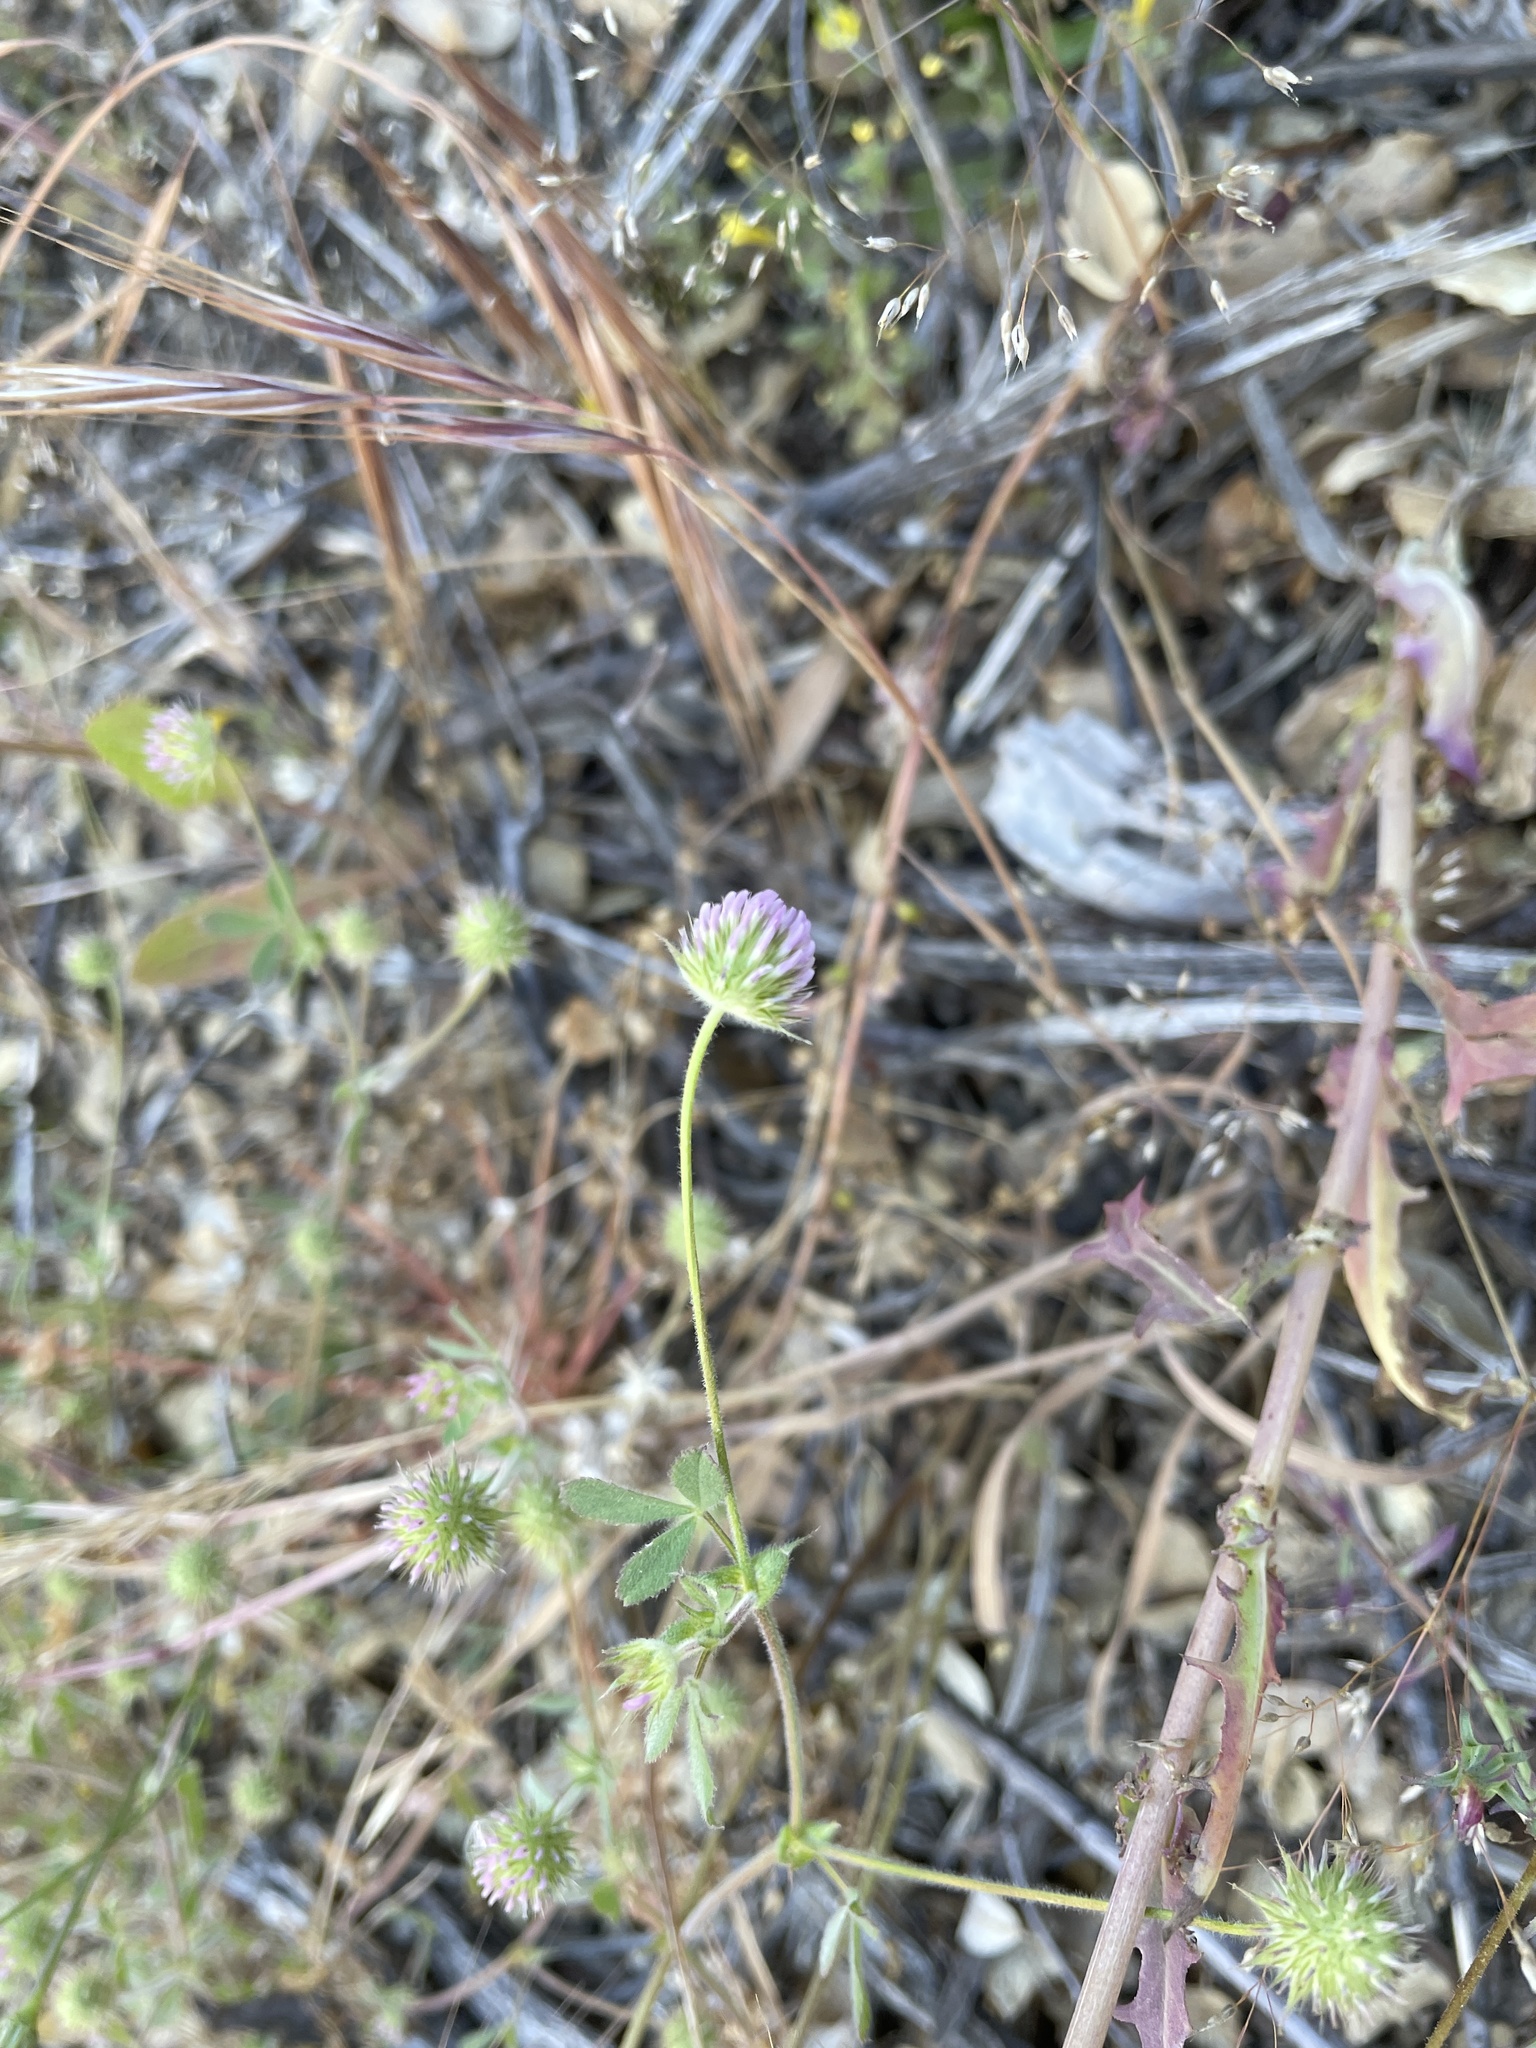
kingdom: Plantae
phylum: Tracheophyta
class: Magnoliopsida
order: Fabales
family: Fabaceae
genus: Trifolium
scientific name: Trifolium microcephalum
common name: Maiden clover
